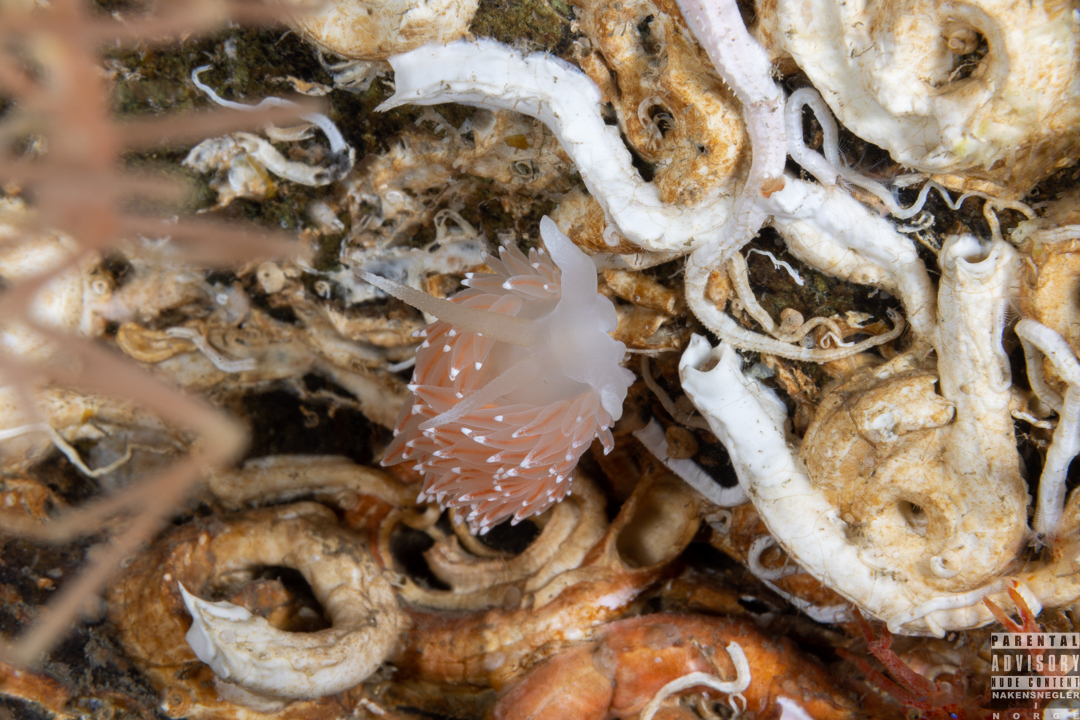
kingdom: Animalia
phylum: Mollusca
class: Gastropoda
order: Nudibranchia
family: Coryphellidae
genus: Coryphella
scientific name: Coryphella nobilis
